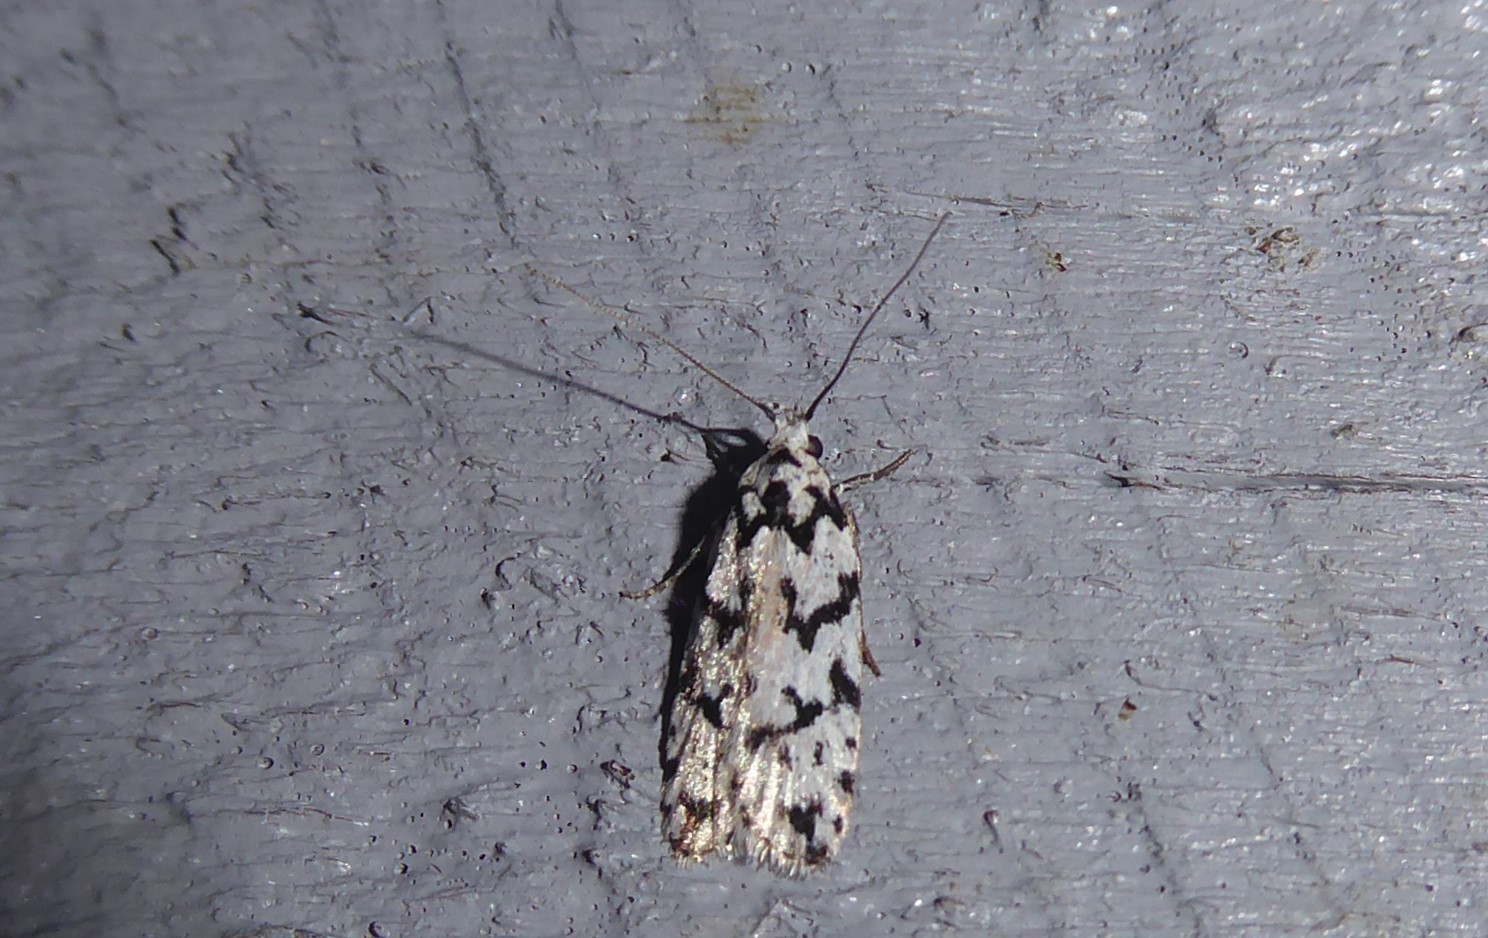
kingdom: Animalia
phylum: Arthropoda
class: Insecta
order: Lepidoptera
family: Oecophoridae
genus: Izatha
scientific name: Izatha katadiktya
